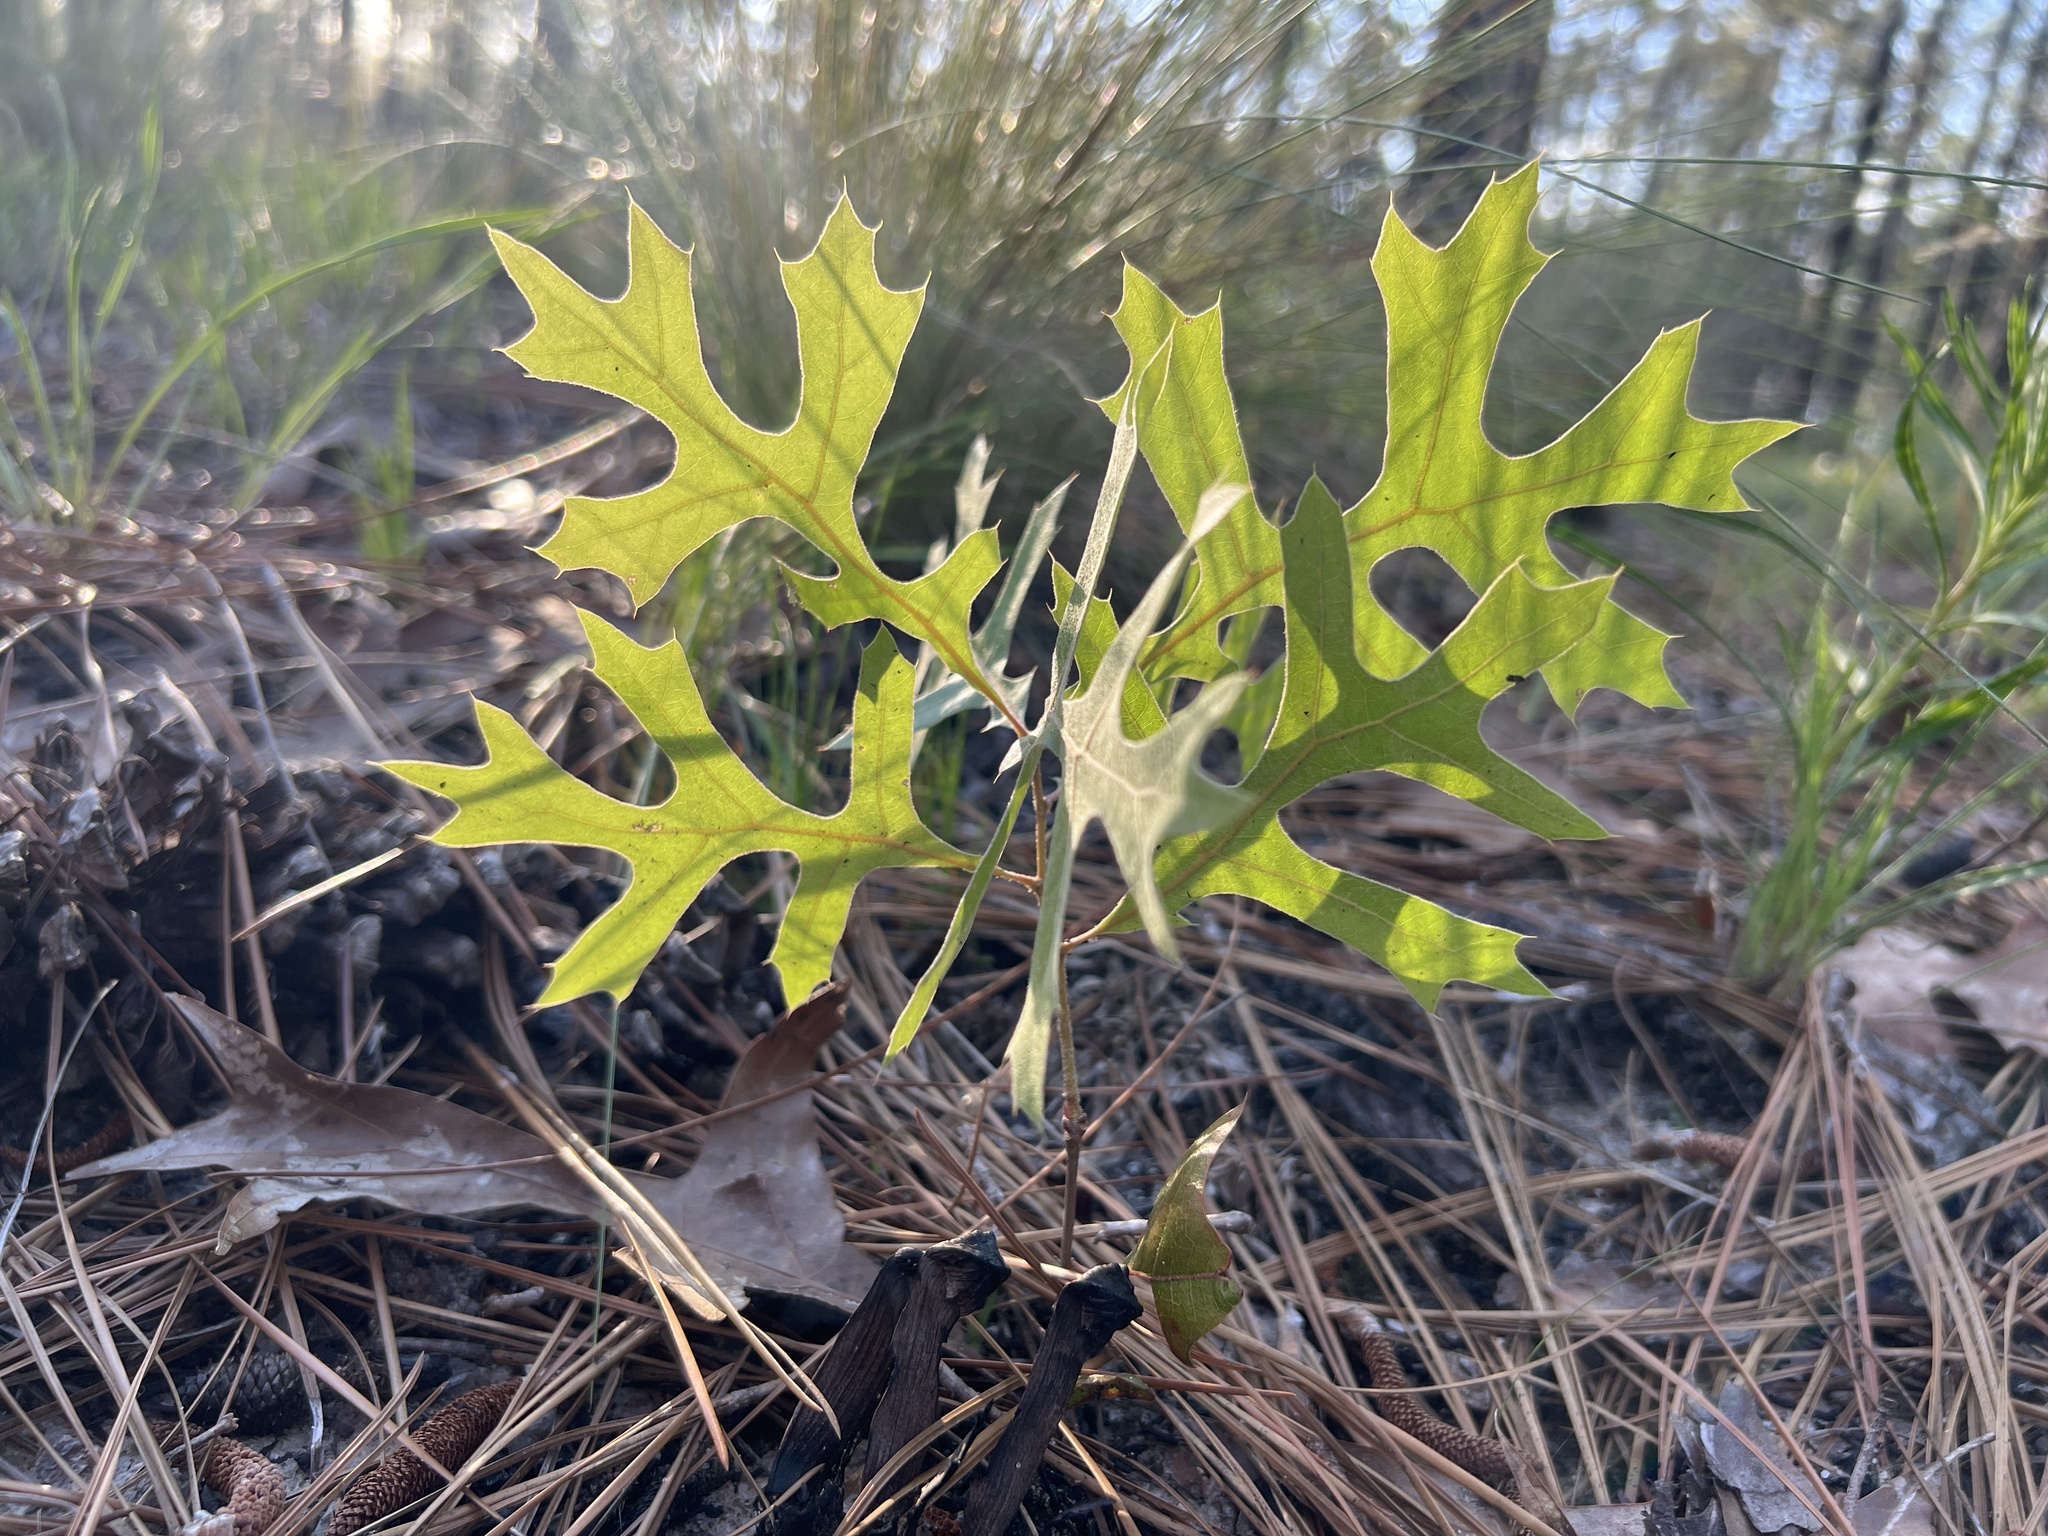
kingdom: Plantae
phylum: Tracheophyta
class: Magnoliopsida
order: Fagales
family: Fagaceae
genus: Quercus
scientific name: Quercus laevis
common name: Turkey oak
